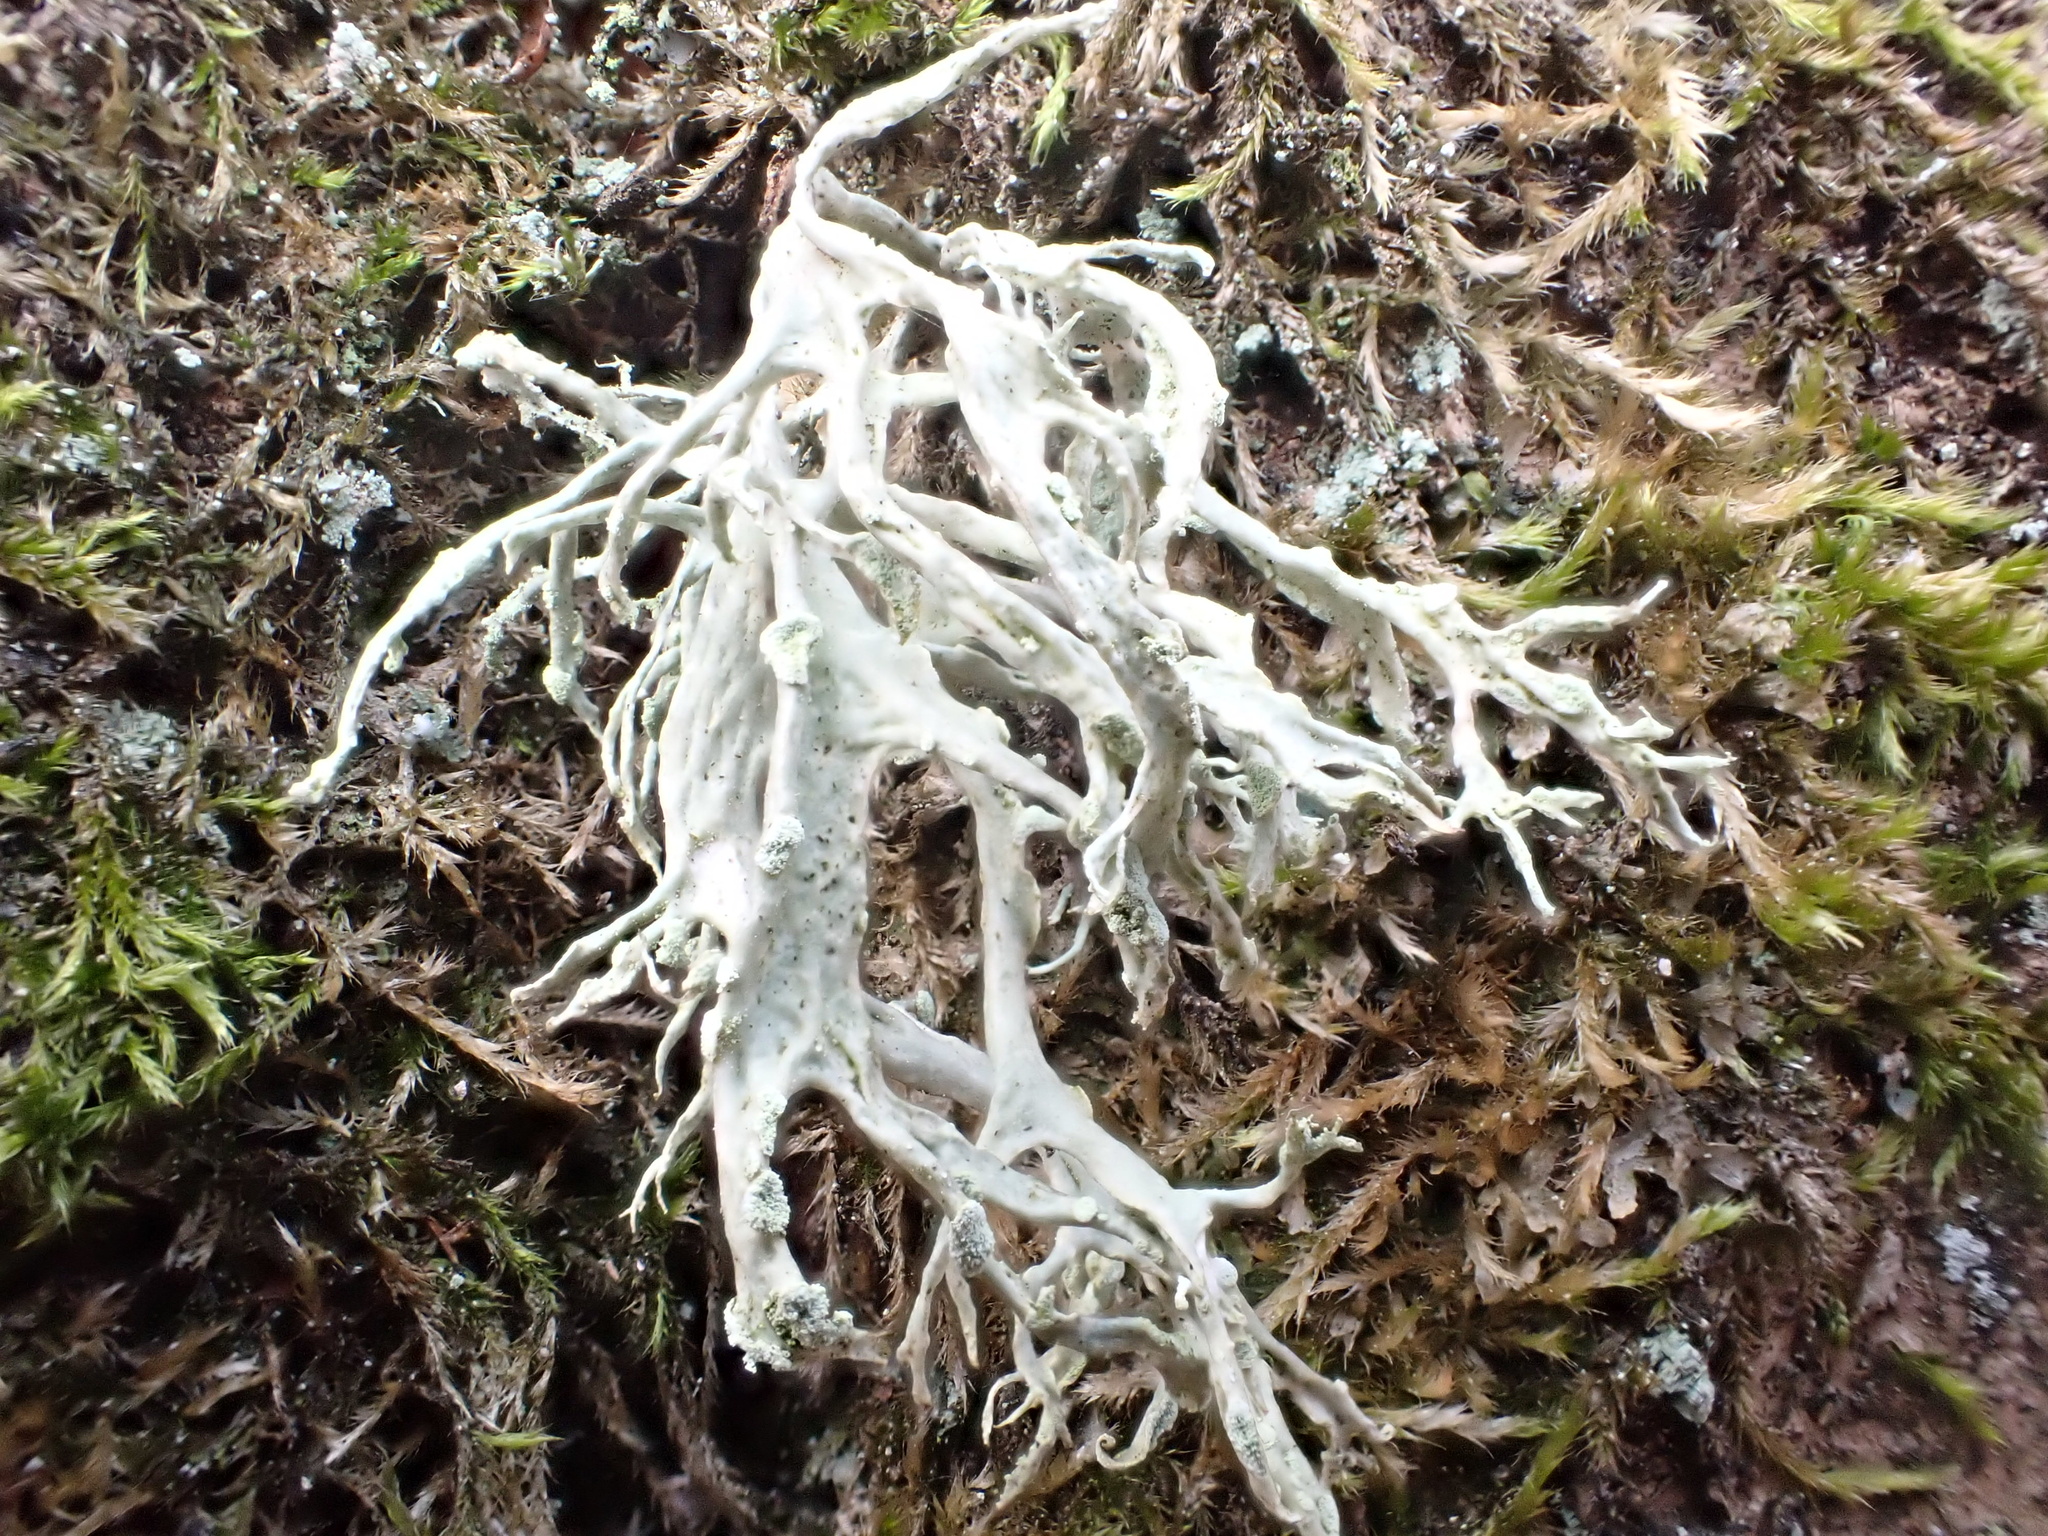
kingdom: Fungi
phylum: Ascomycota
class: Lecanoromycetes
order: Lecanorales
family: Ramalinaceae
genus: Ramalina
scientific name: Ramalina farinacea
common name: Farinose cartilage lichen
